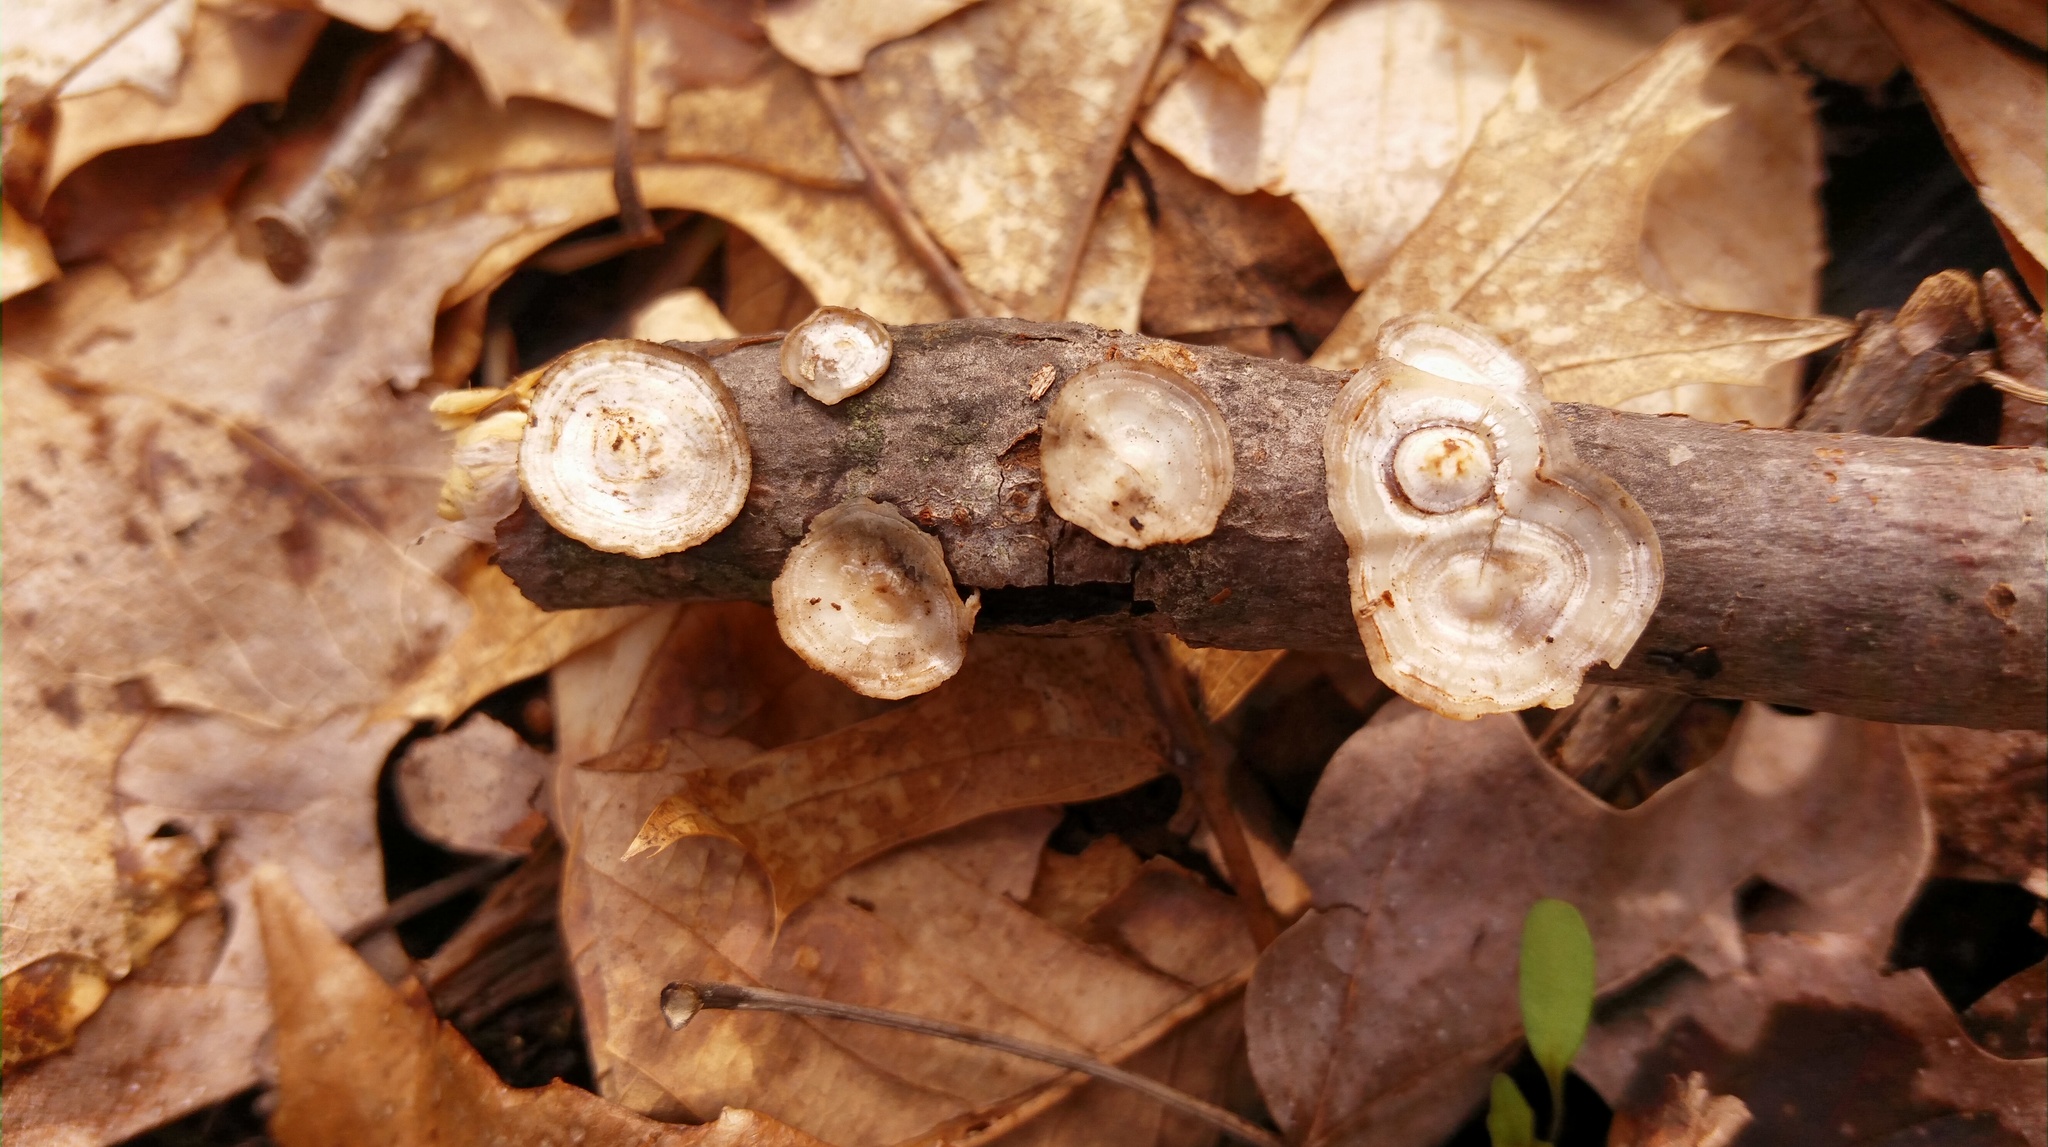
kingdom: Fungi
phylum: Basidiomycota
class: Agaricomycetes
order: Polyporales
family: Polyporaceae
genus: Poronidulus
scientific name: Poronidulus conchifer
